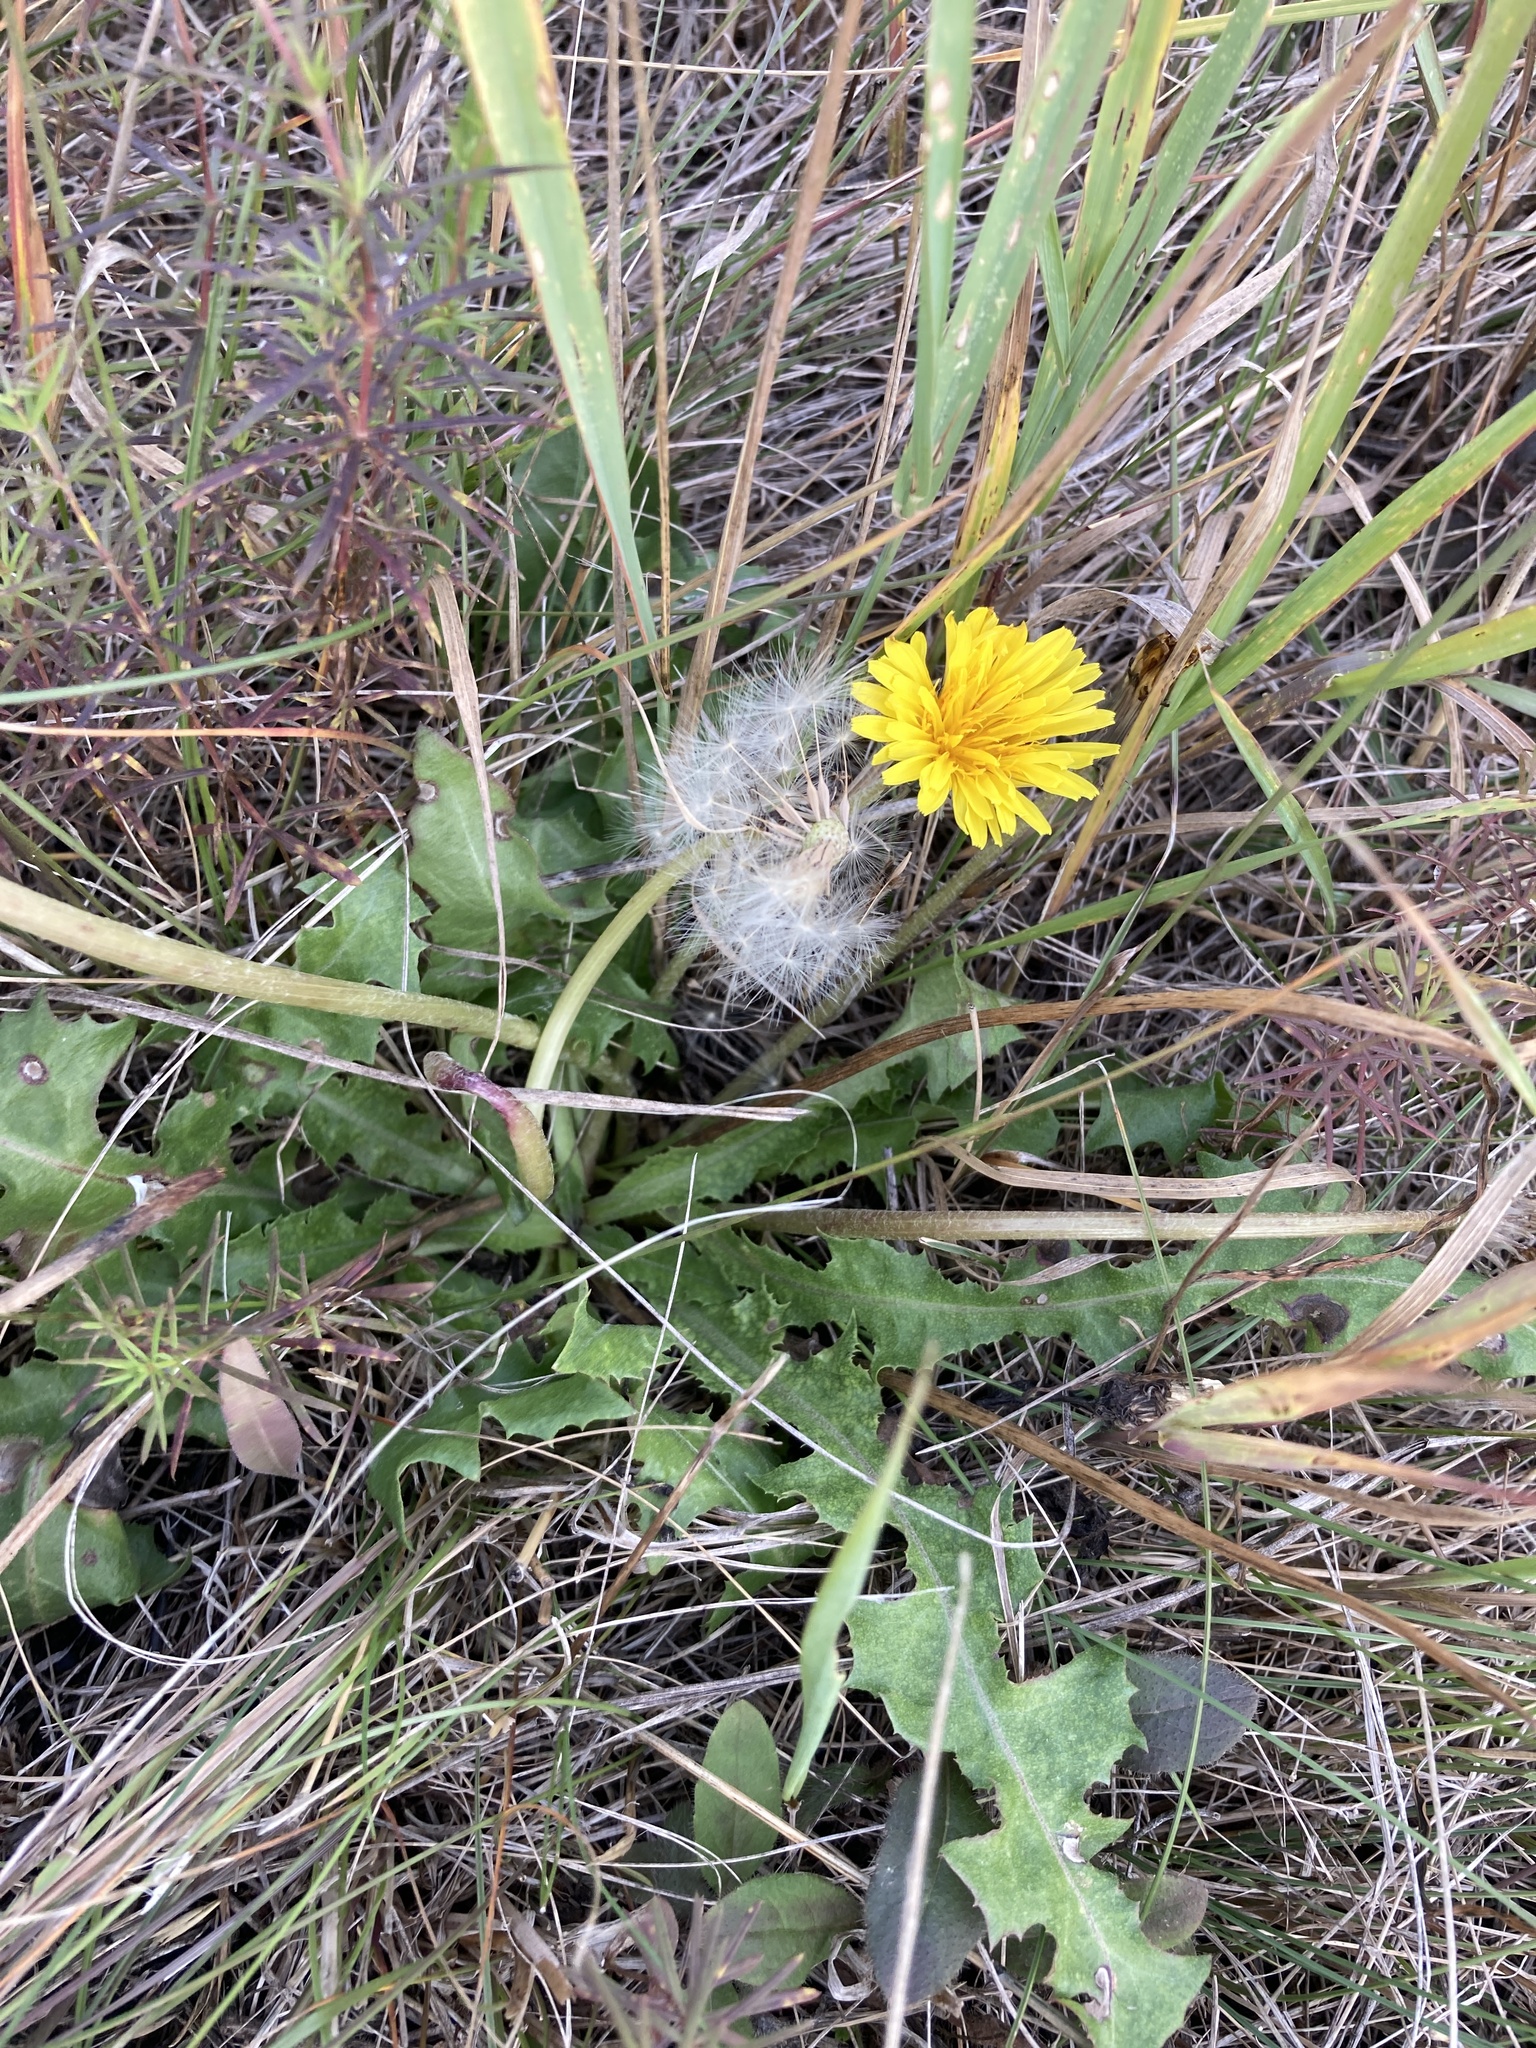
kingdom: Plantae
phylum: Tracheophyta
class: Magnoliopsida
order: Asterales
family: Asteraceae
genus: Taraxacum
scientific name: Taraxacum serotinum
